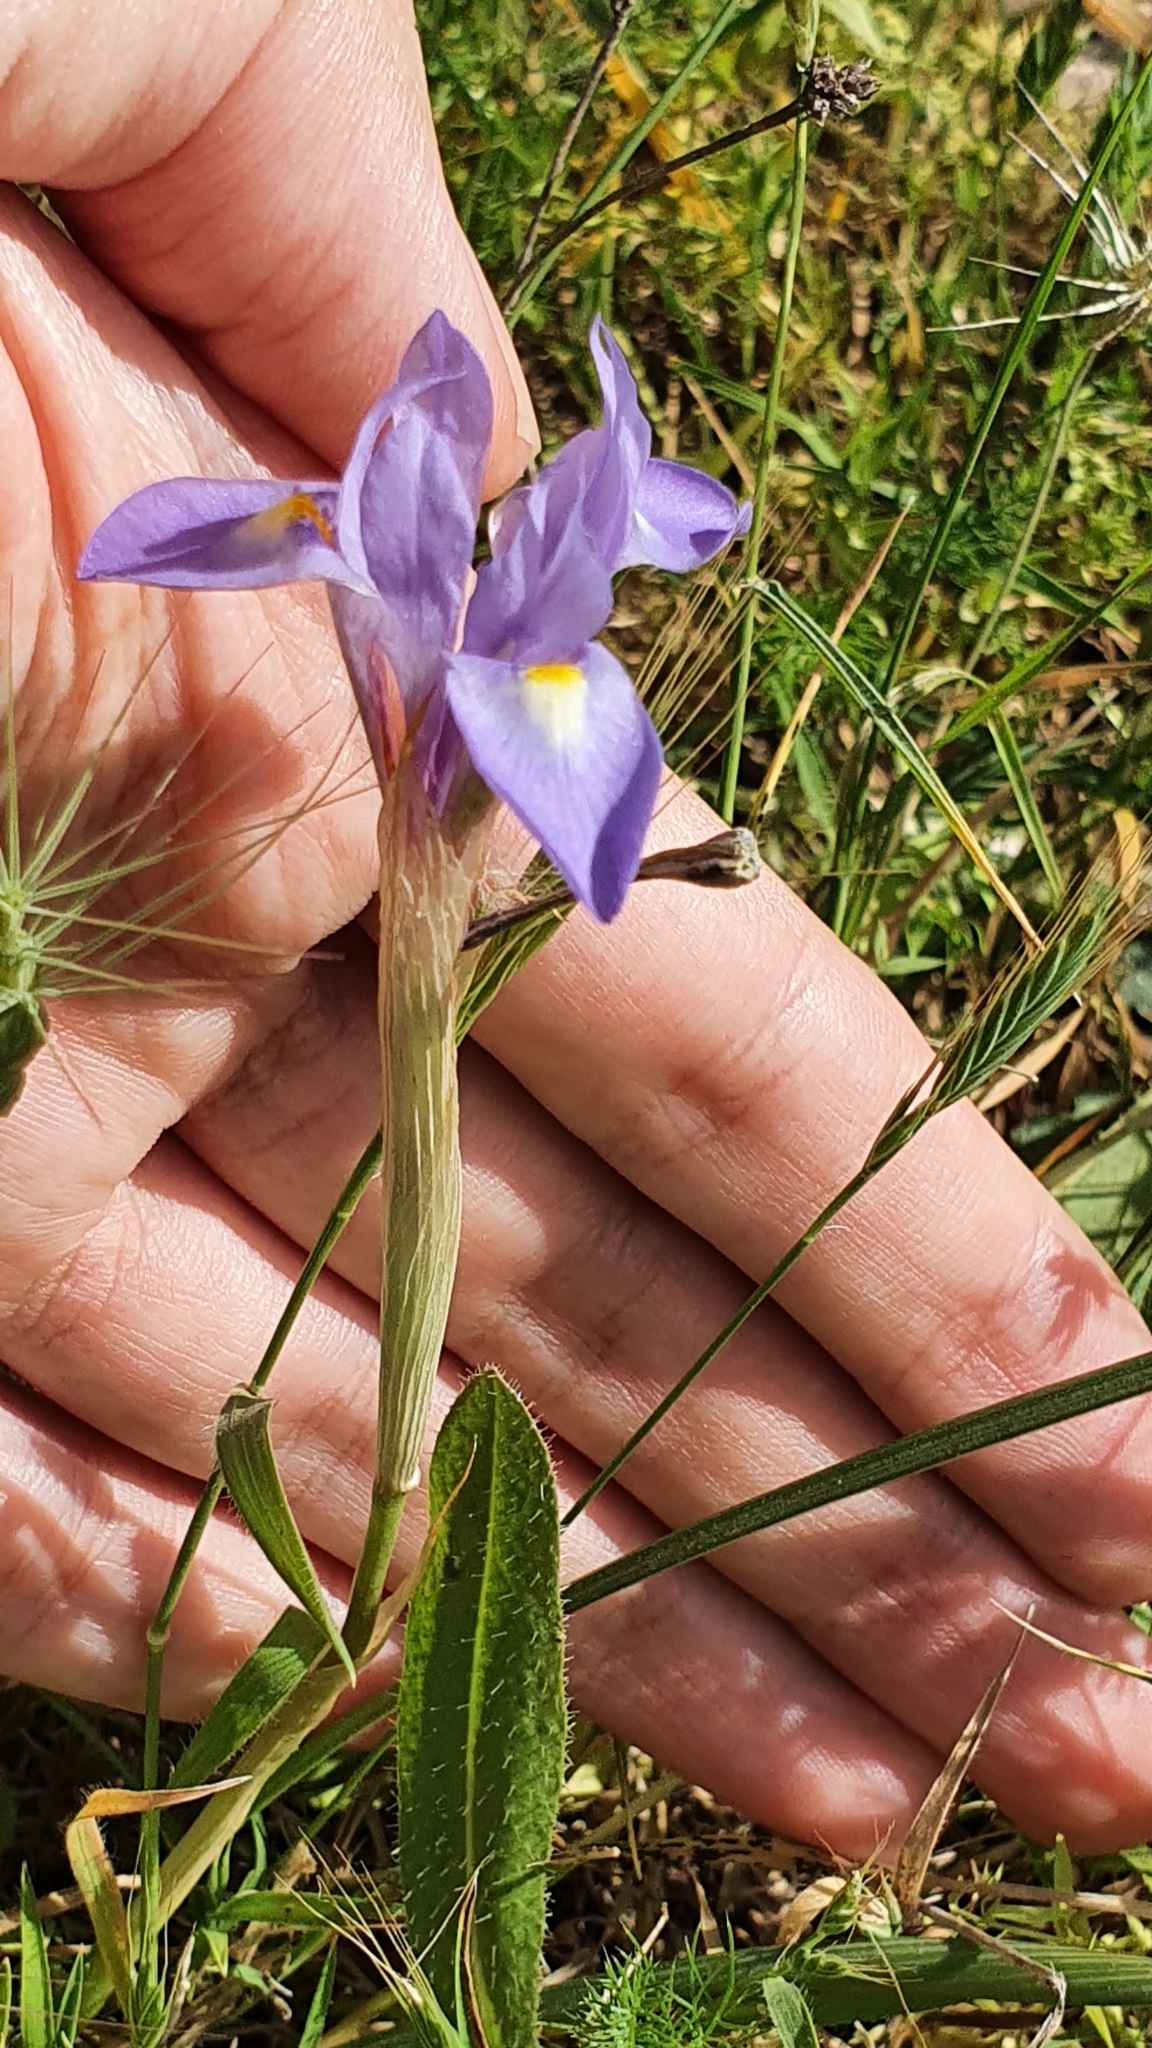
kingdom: Plantae
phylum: Tracheophyta
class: Liliopsida
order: Asparagales
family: Iridaceae
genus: Moraea
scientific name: Moraea sisyrinchium
